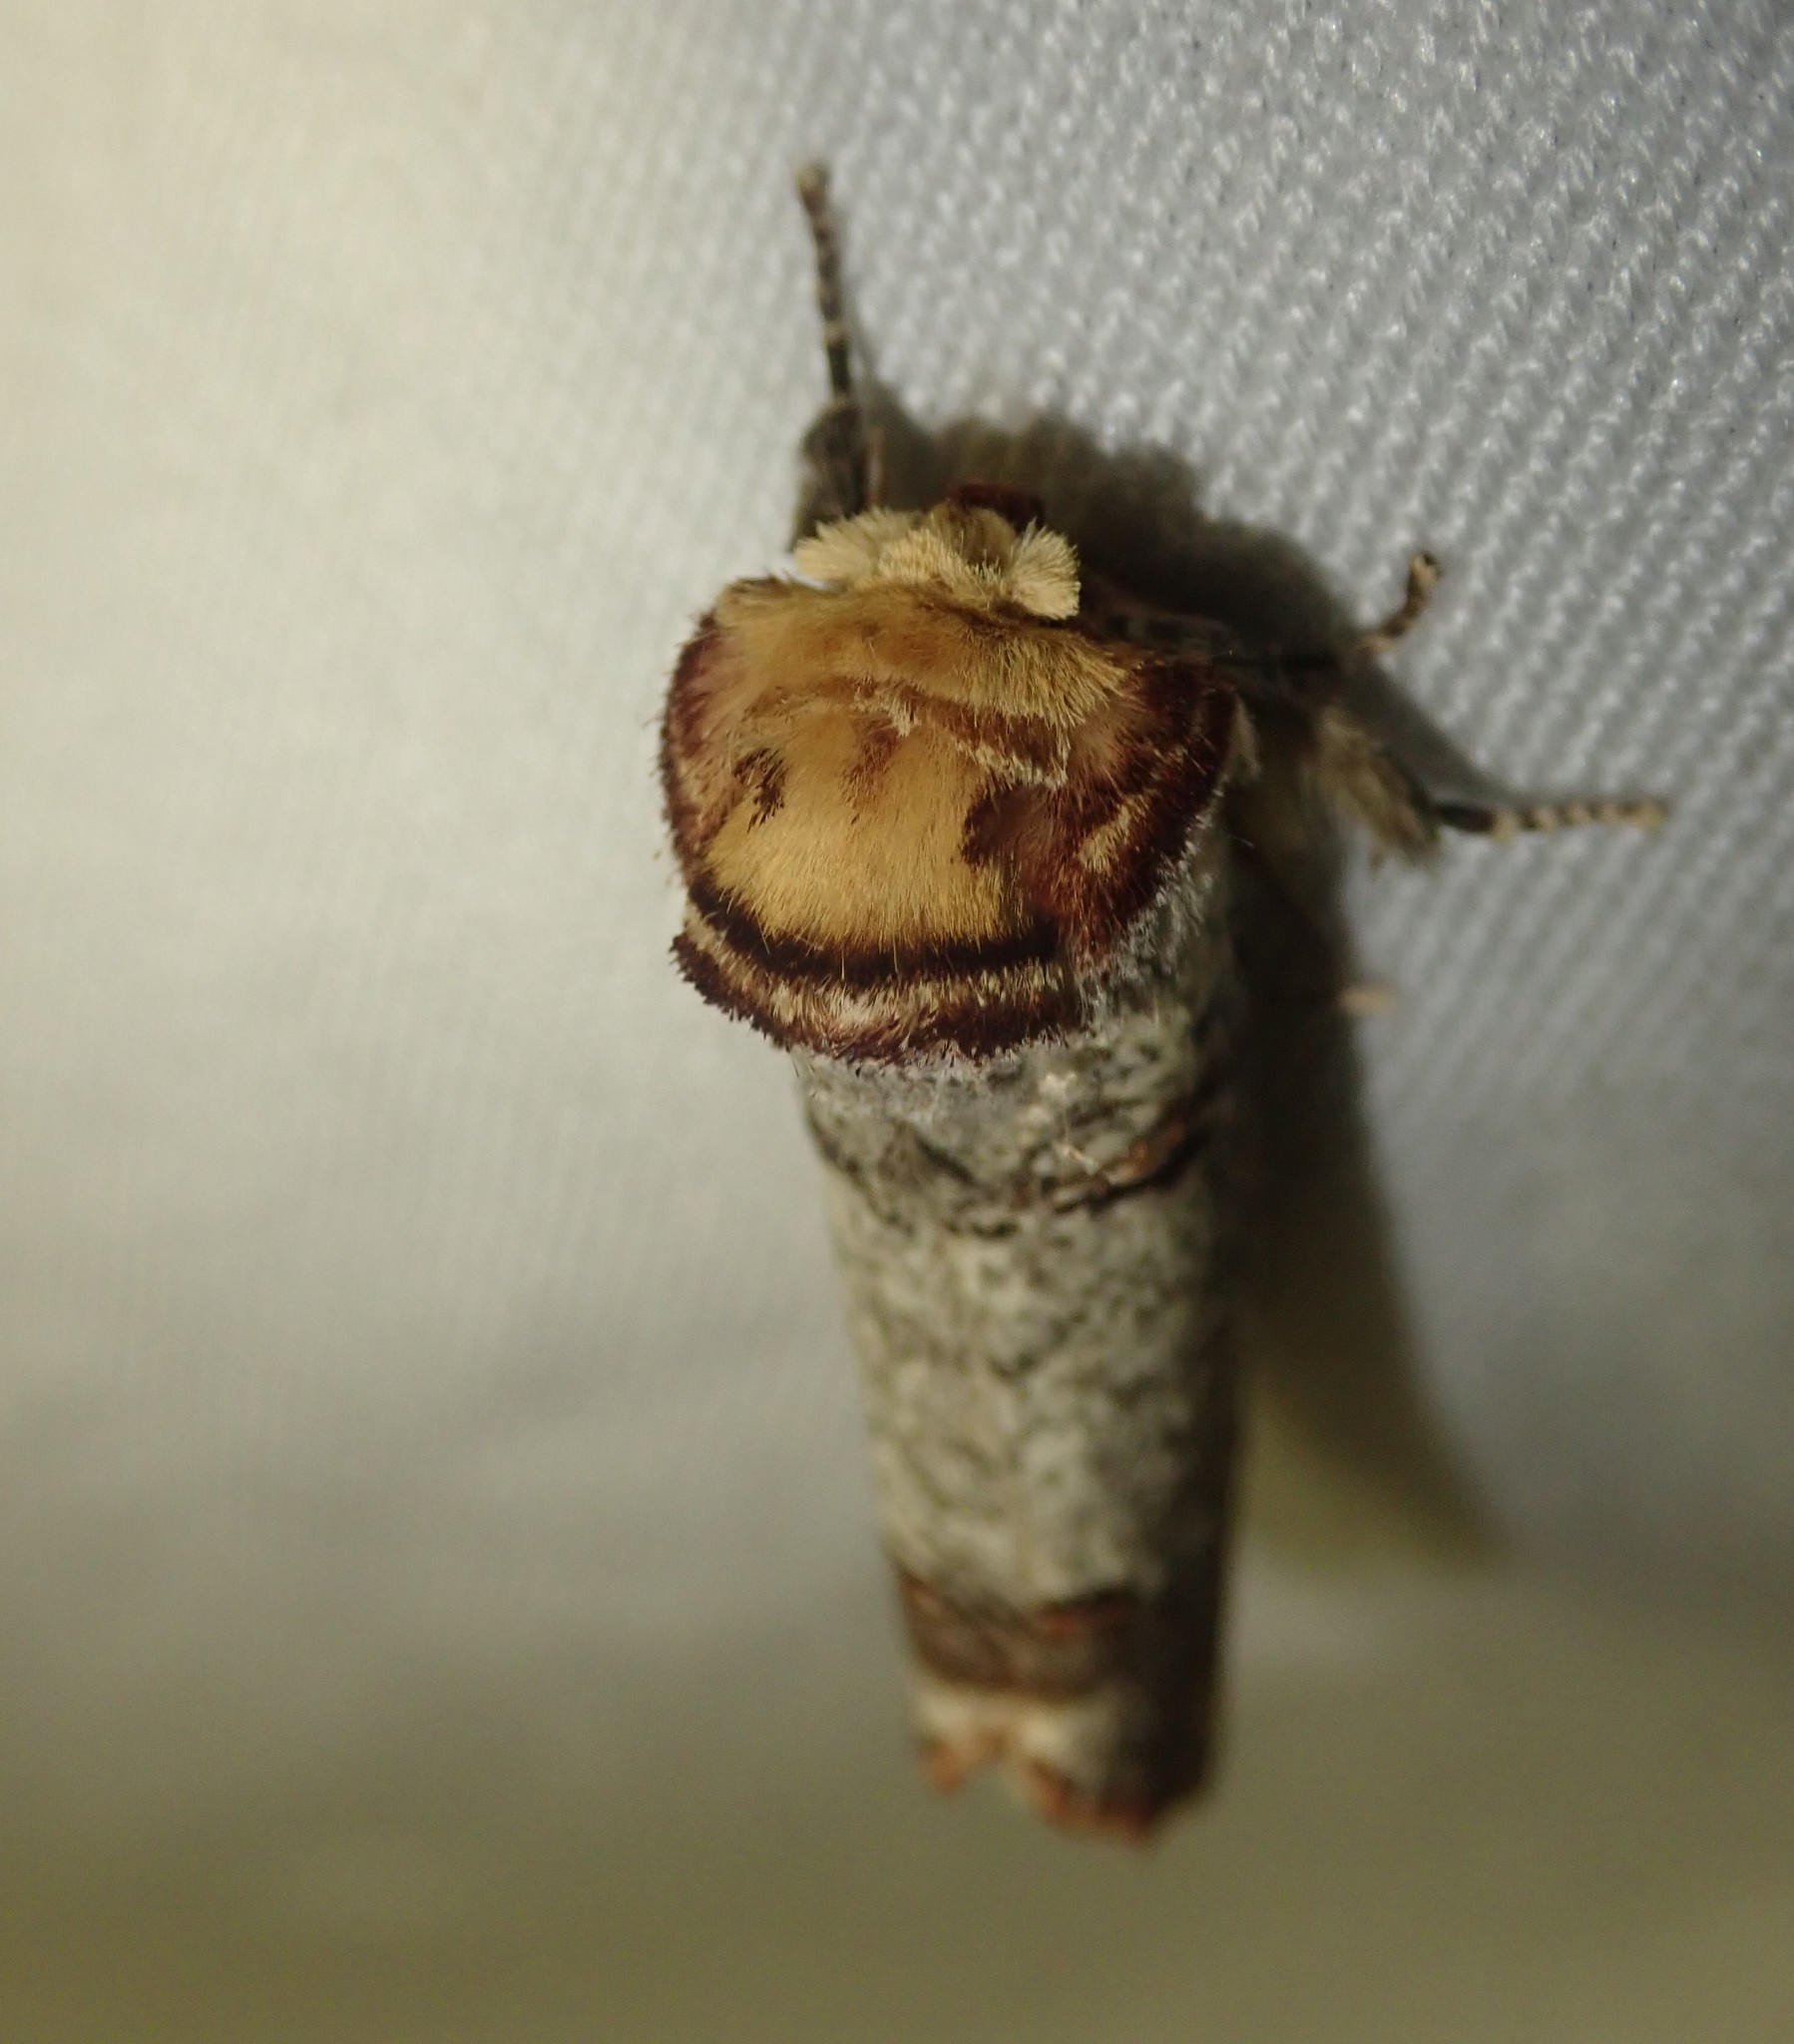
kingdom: Animalia
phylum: Arthropoda
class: Insecta
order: Lepidoptera
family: Notodontidae
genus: Phalera
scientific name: Phalera bucephala
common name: Buff-tip
